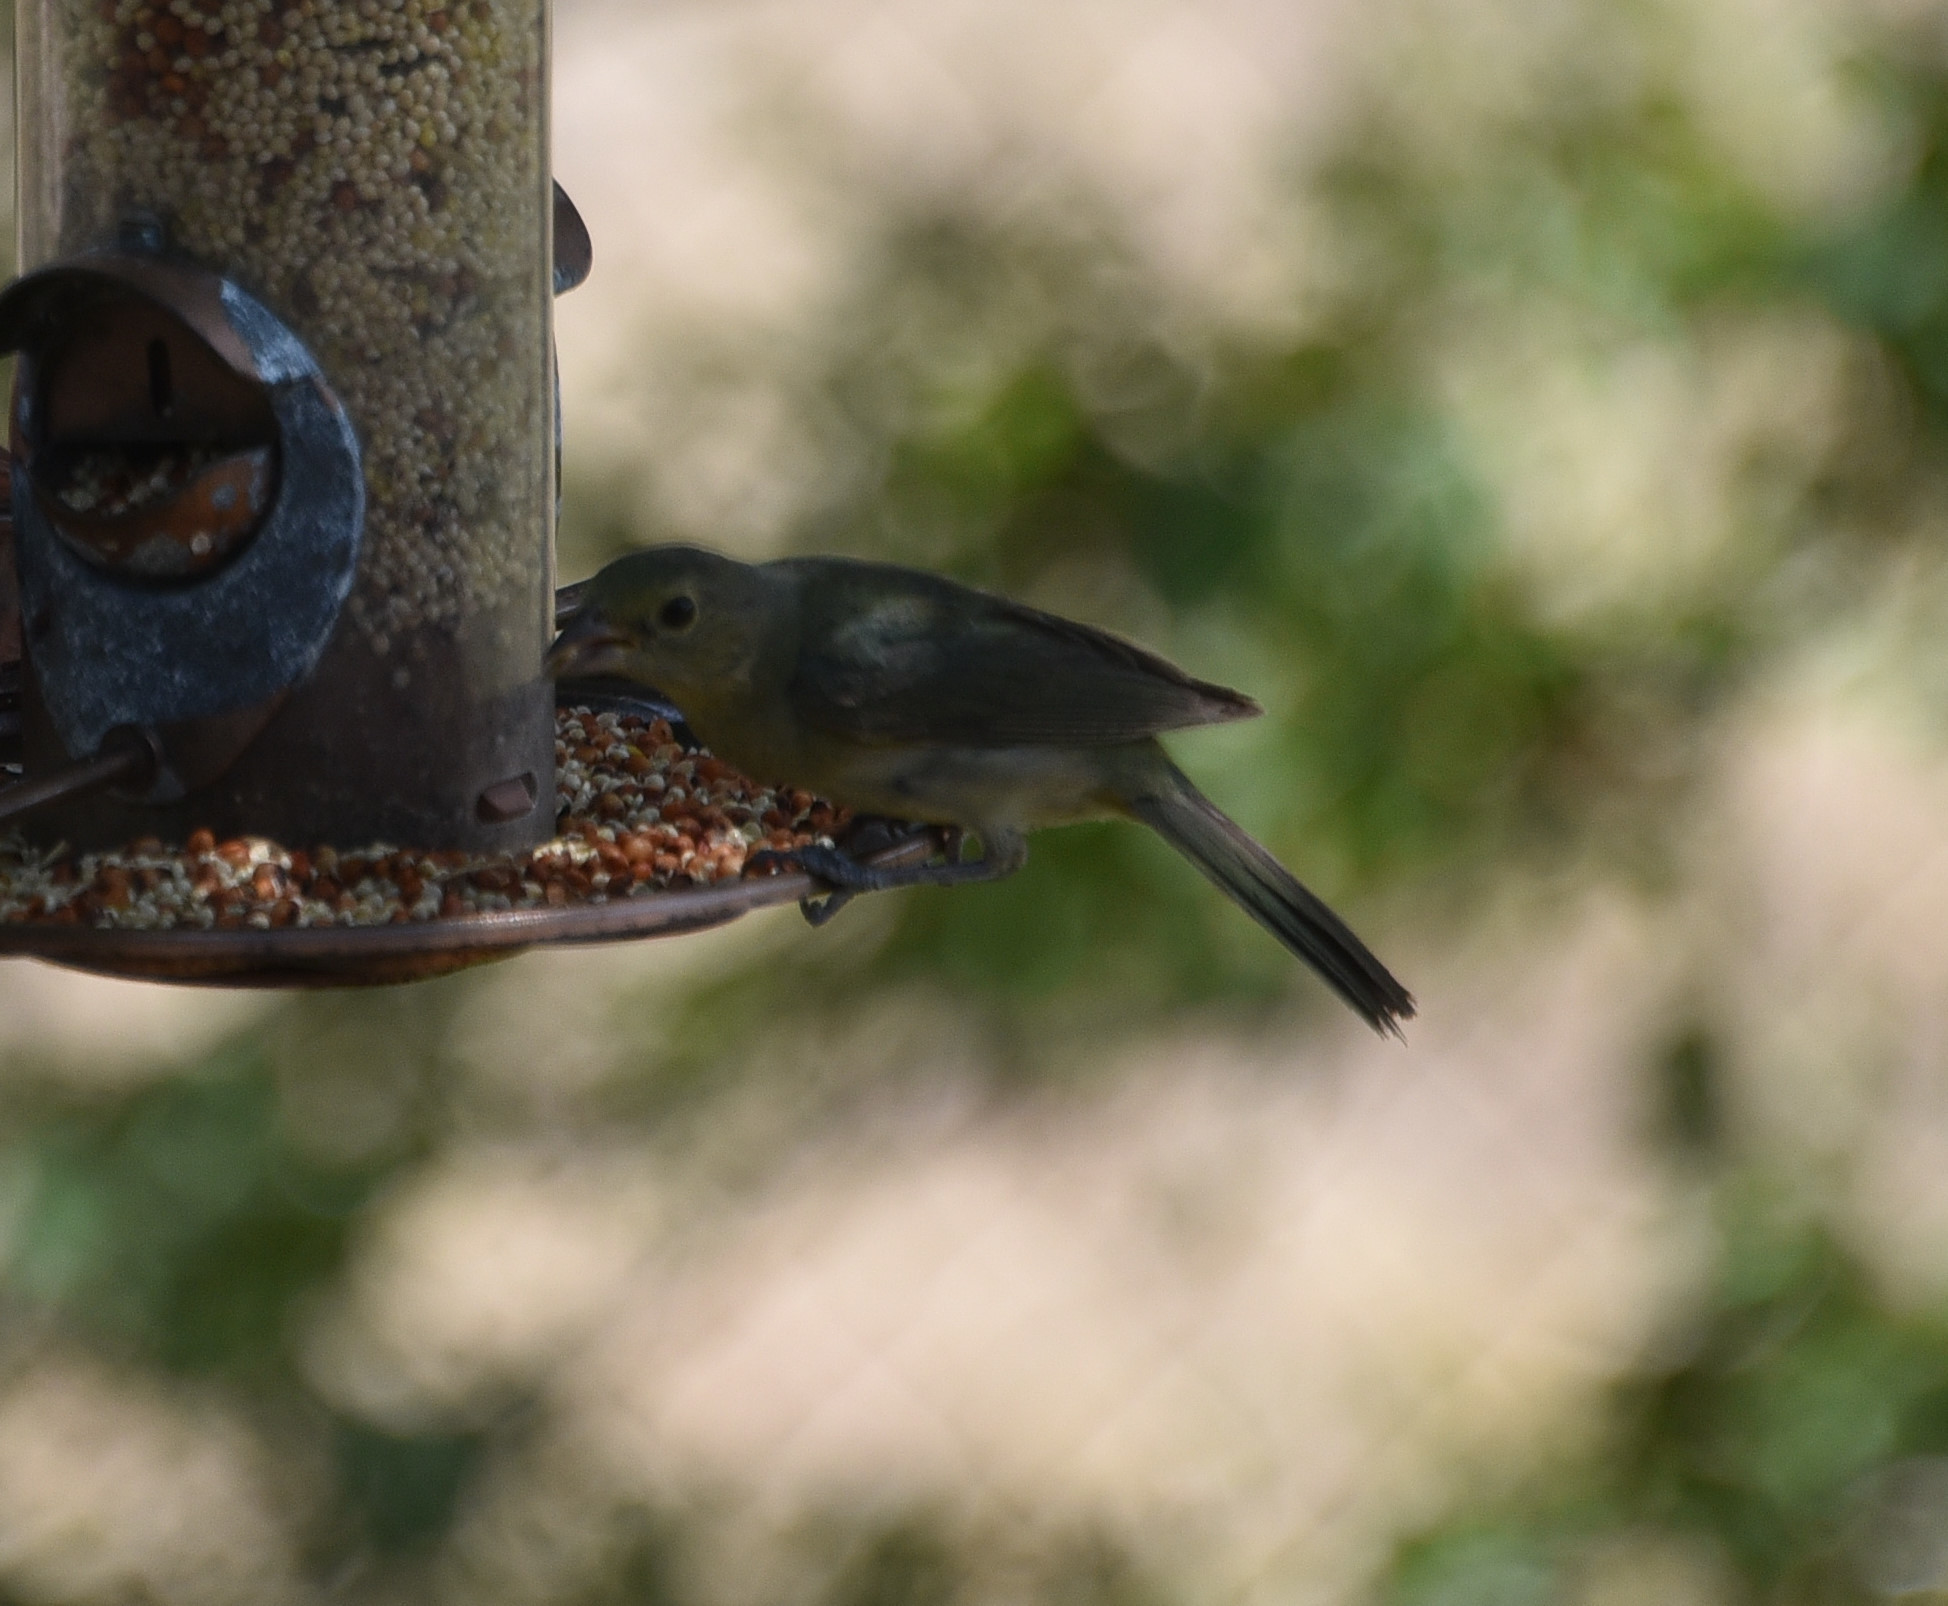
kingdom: Animalia
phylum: Chordata
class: Aves
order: Passeriformes
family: Cardinalidae
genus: Passerina
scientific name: Passerina ciris
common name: Painted bunting
